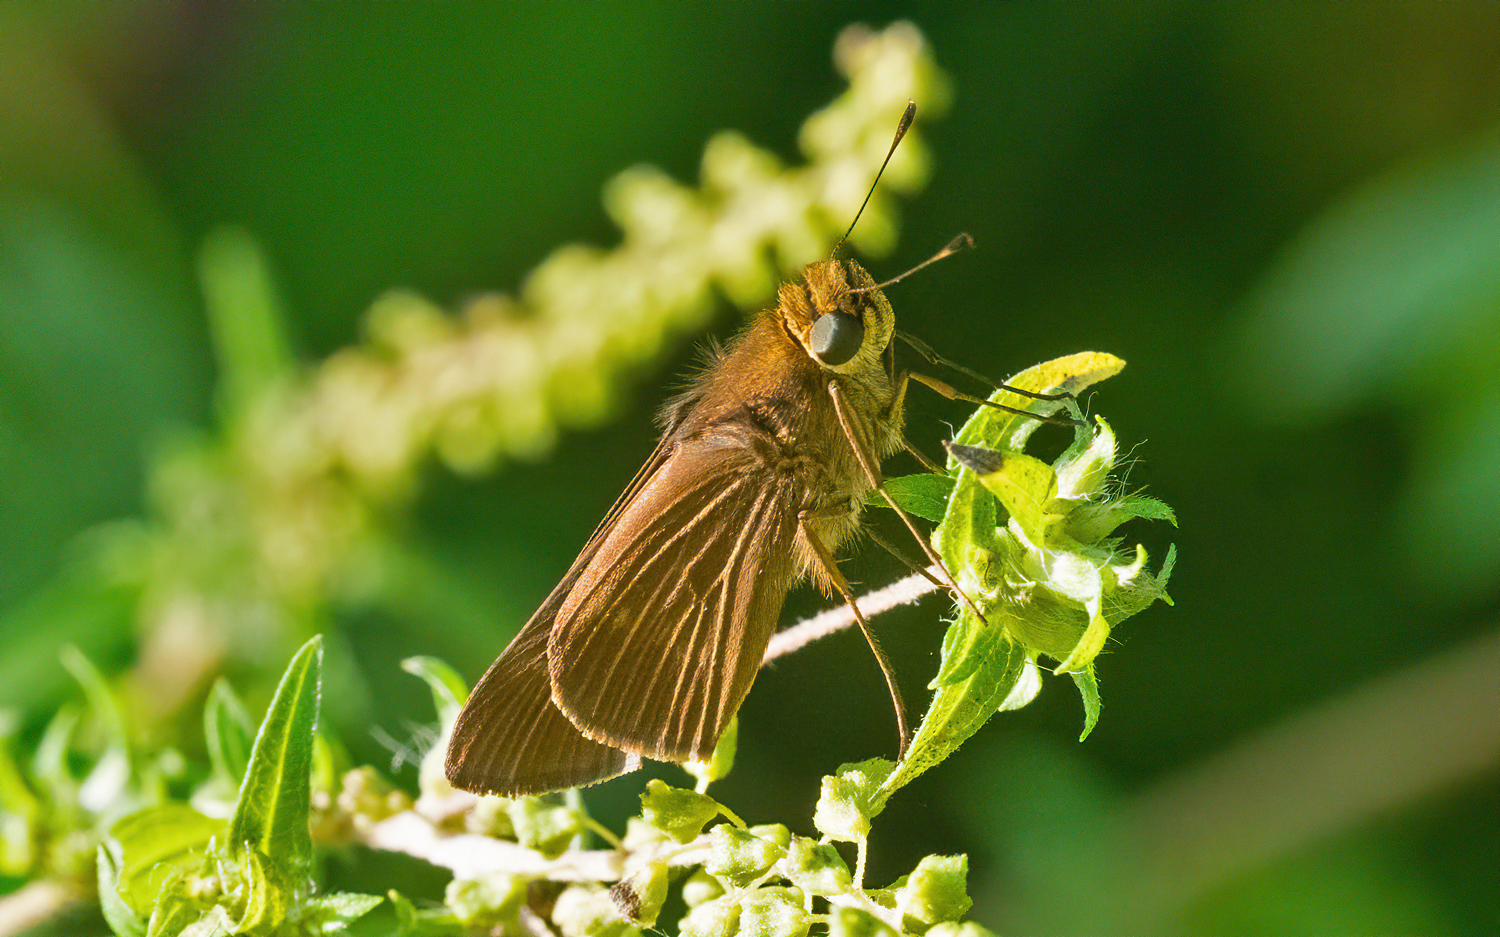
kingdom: Animalia
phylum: Arthropoda
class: Insecta
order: Lepidoptera
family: Hesperiidae
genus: Panoquina
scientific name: Panoquina ocola
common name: Ocola skipper
